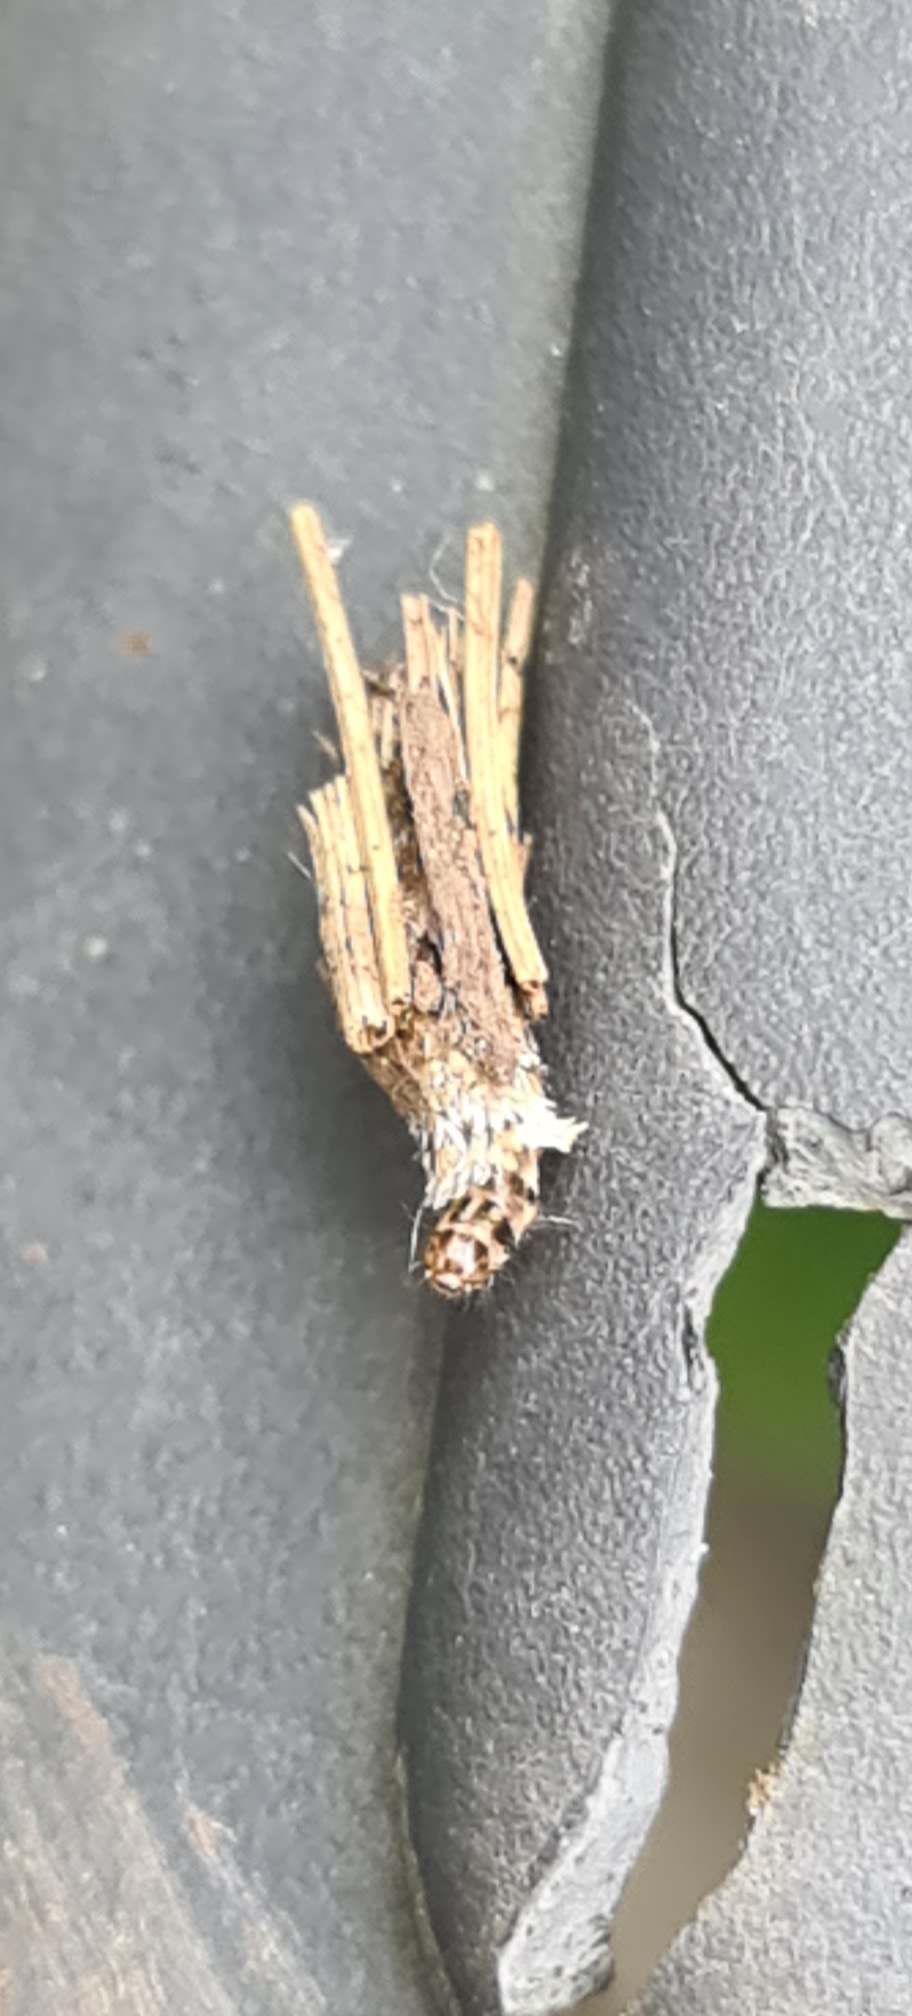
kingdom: Animalia
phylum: Arthropoda
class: Insecta
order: Lepidoptera
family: Psychidae
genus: Psyche
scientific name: Psyche casta
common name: Common sweep
